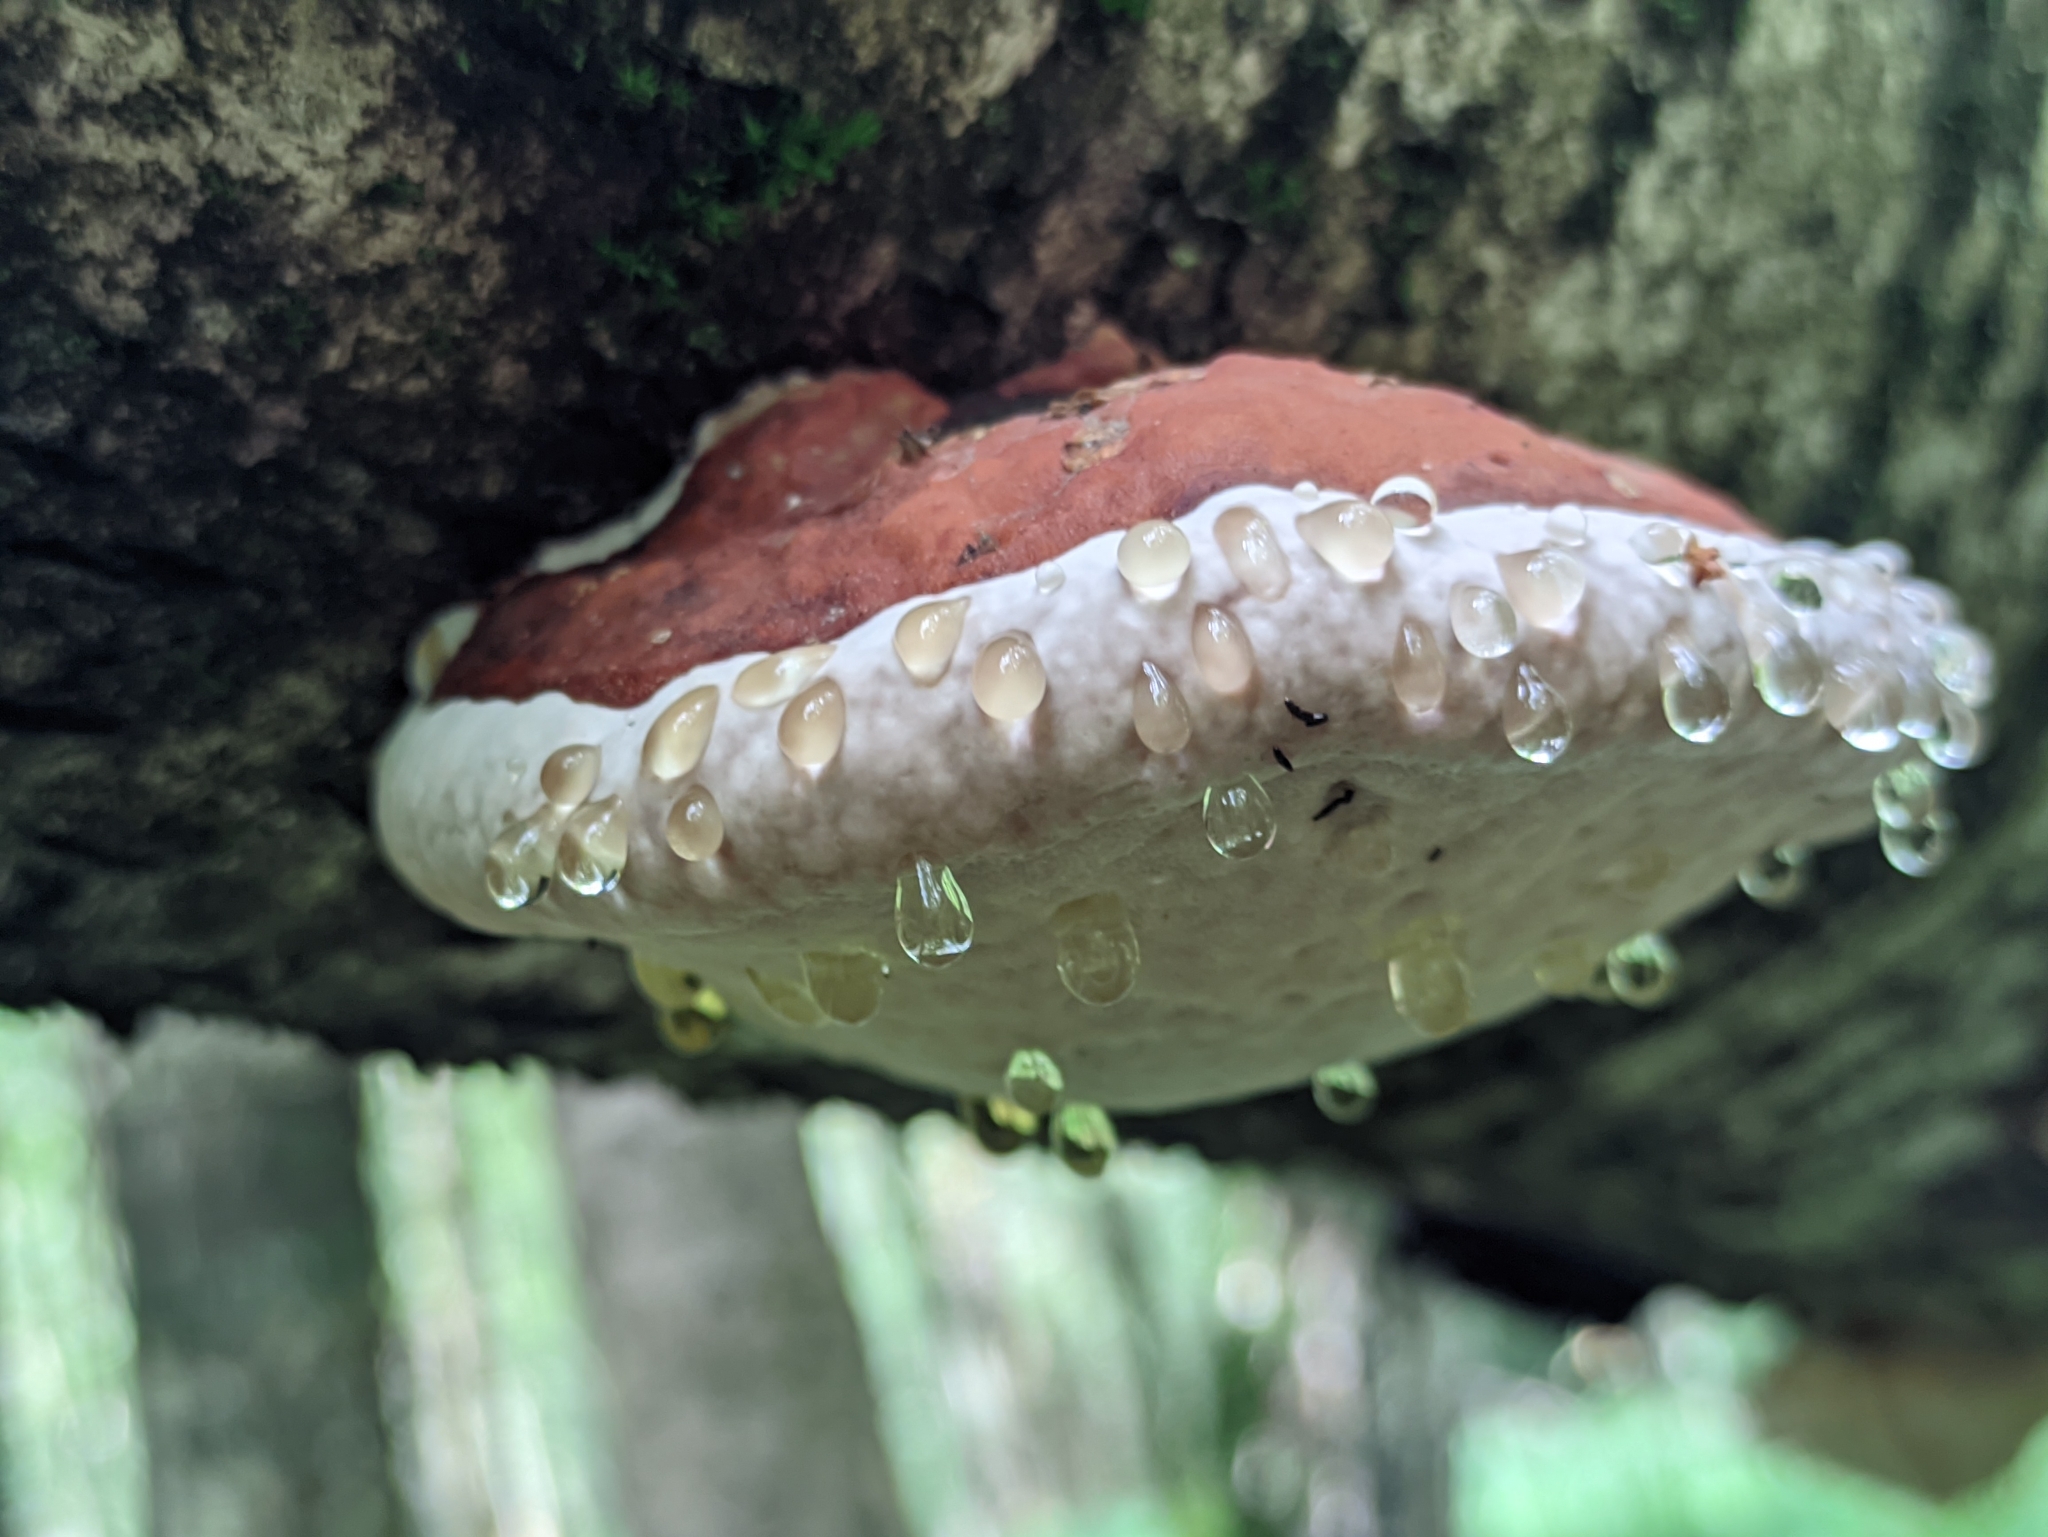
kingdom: Fungi
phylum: Basidiomycota
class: Agaricomycetes
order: Polyporales
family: Fomitopsidaceae
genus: Fomitopsis
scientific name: Fomitopsis pinicola
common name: Red-belted bracket
